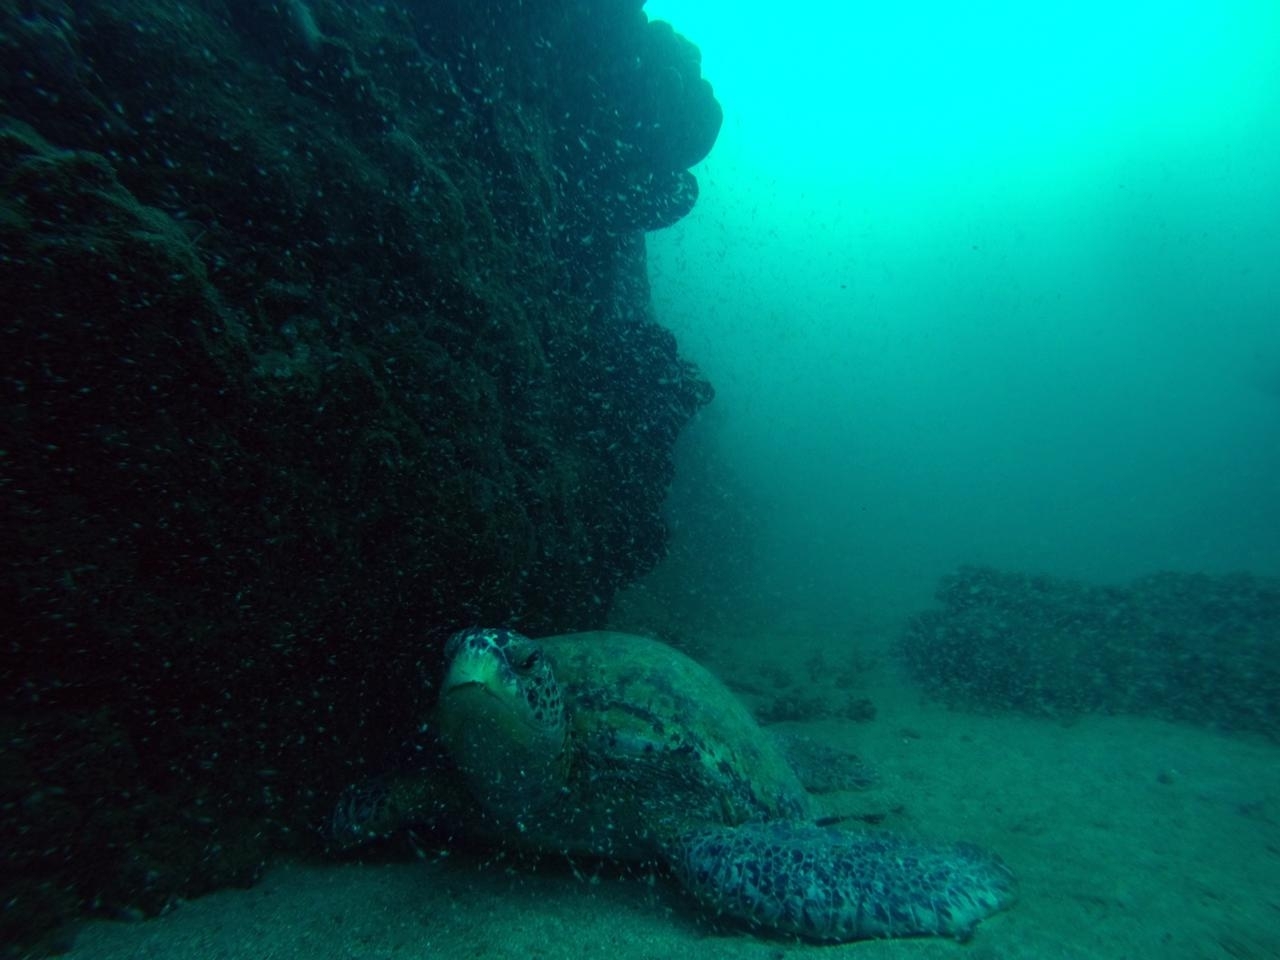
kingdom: Animalia
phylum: Chordata
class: Testudines
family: Cheloniidae
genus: Chelonia
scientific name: Chelonia mydas
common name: Green turtle
